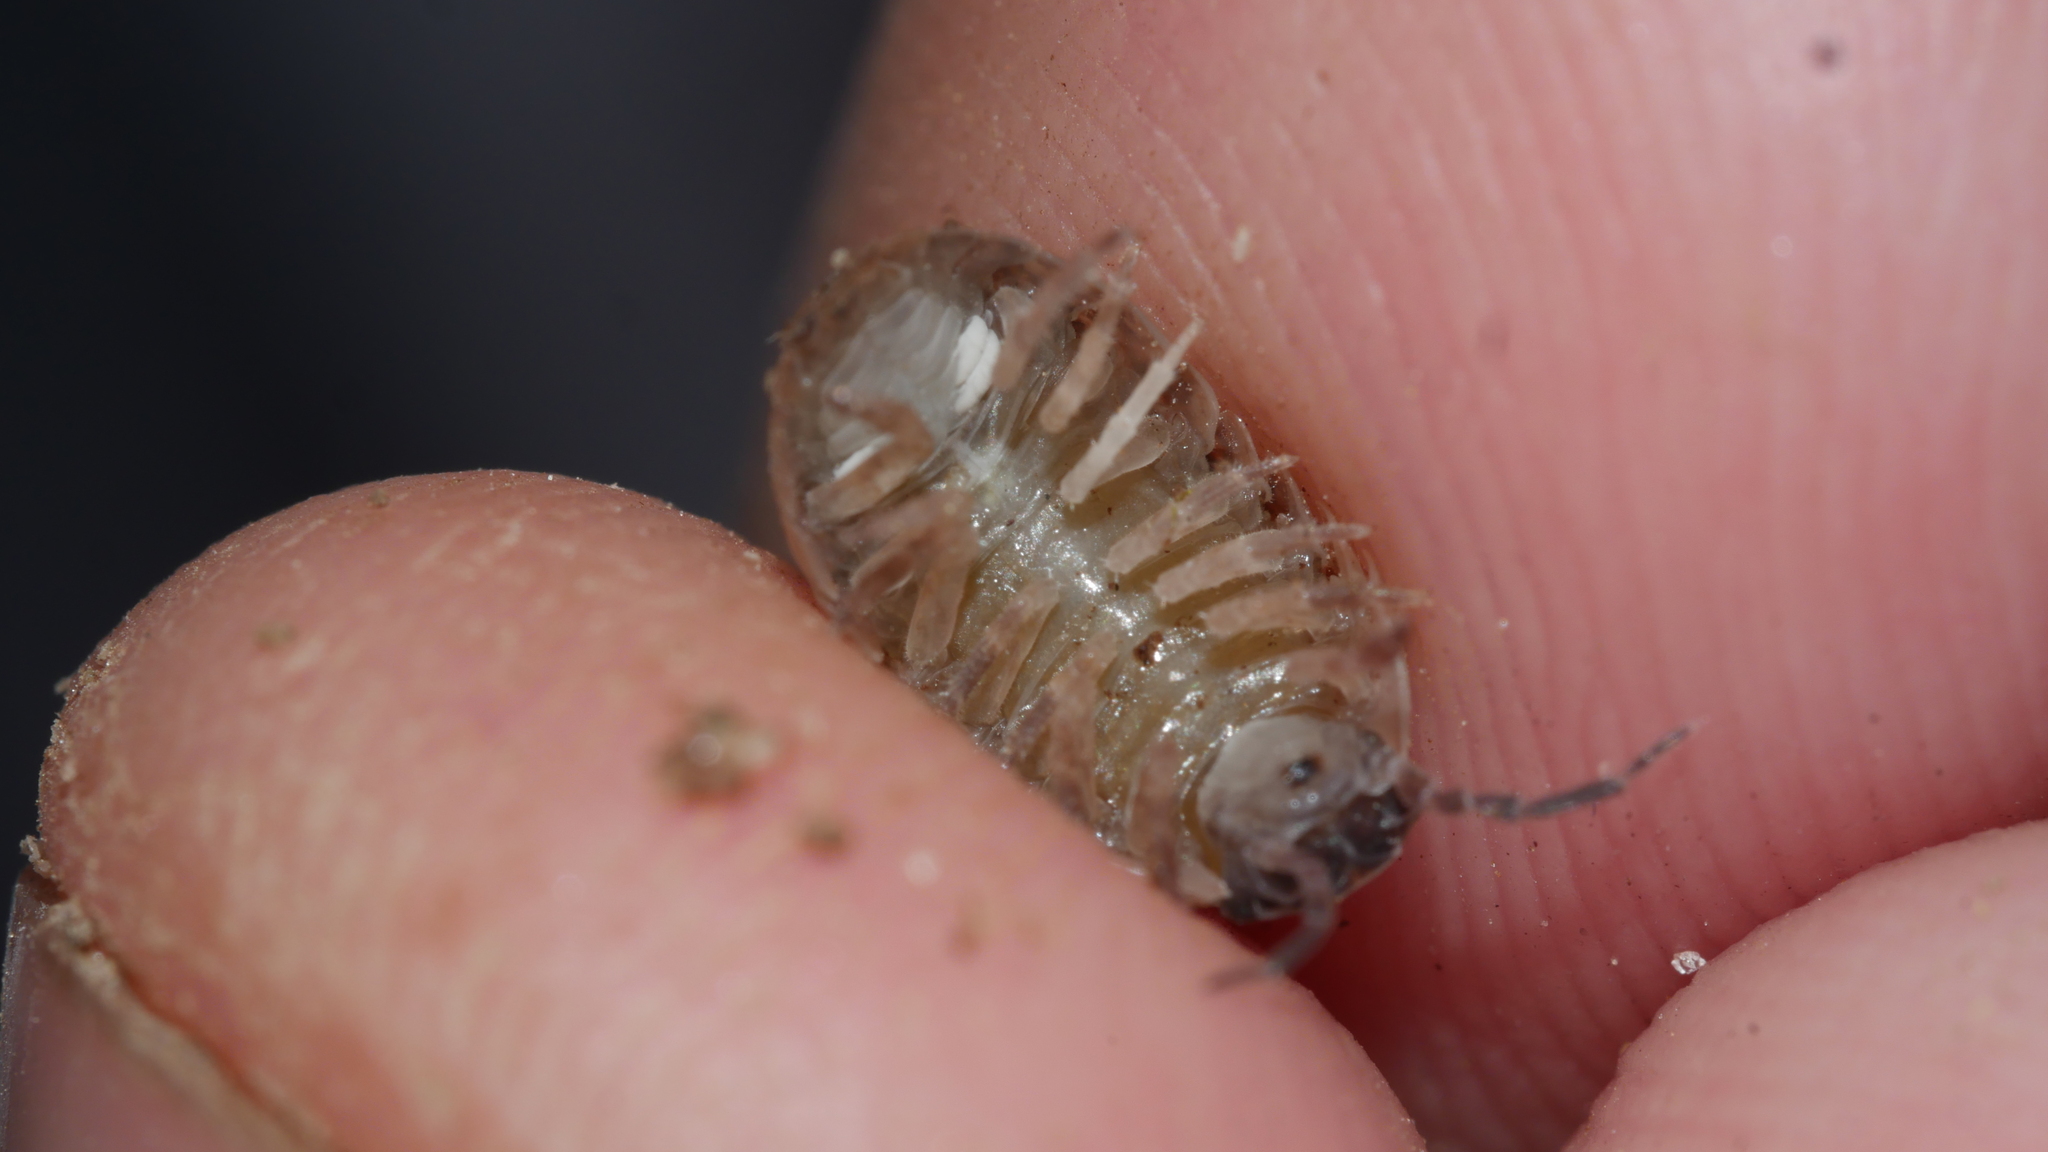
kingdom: Animalia
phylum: Arthropoda
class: Malacostraca
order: Isopoda
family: Armadillidiidae
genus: Armadillidium
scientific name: Armadillidium vulgare
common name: Common pill woodlouse
